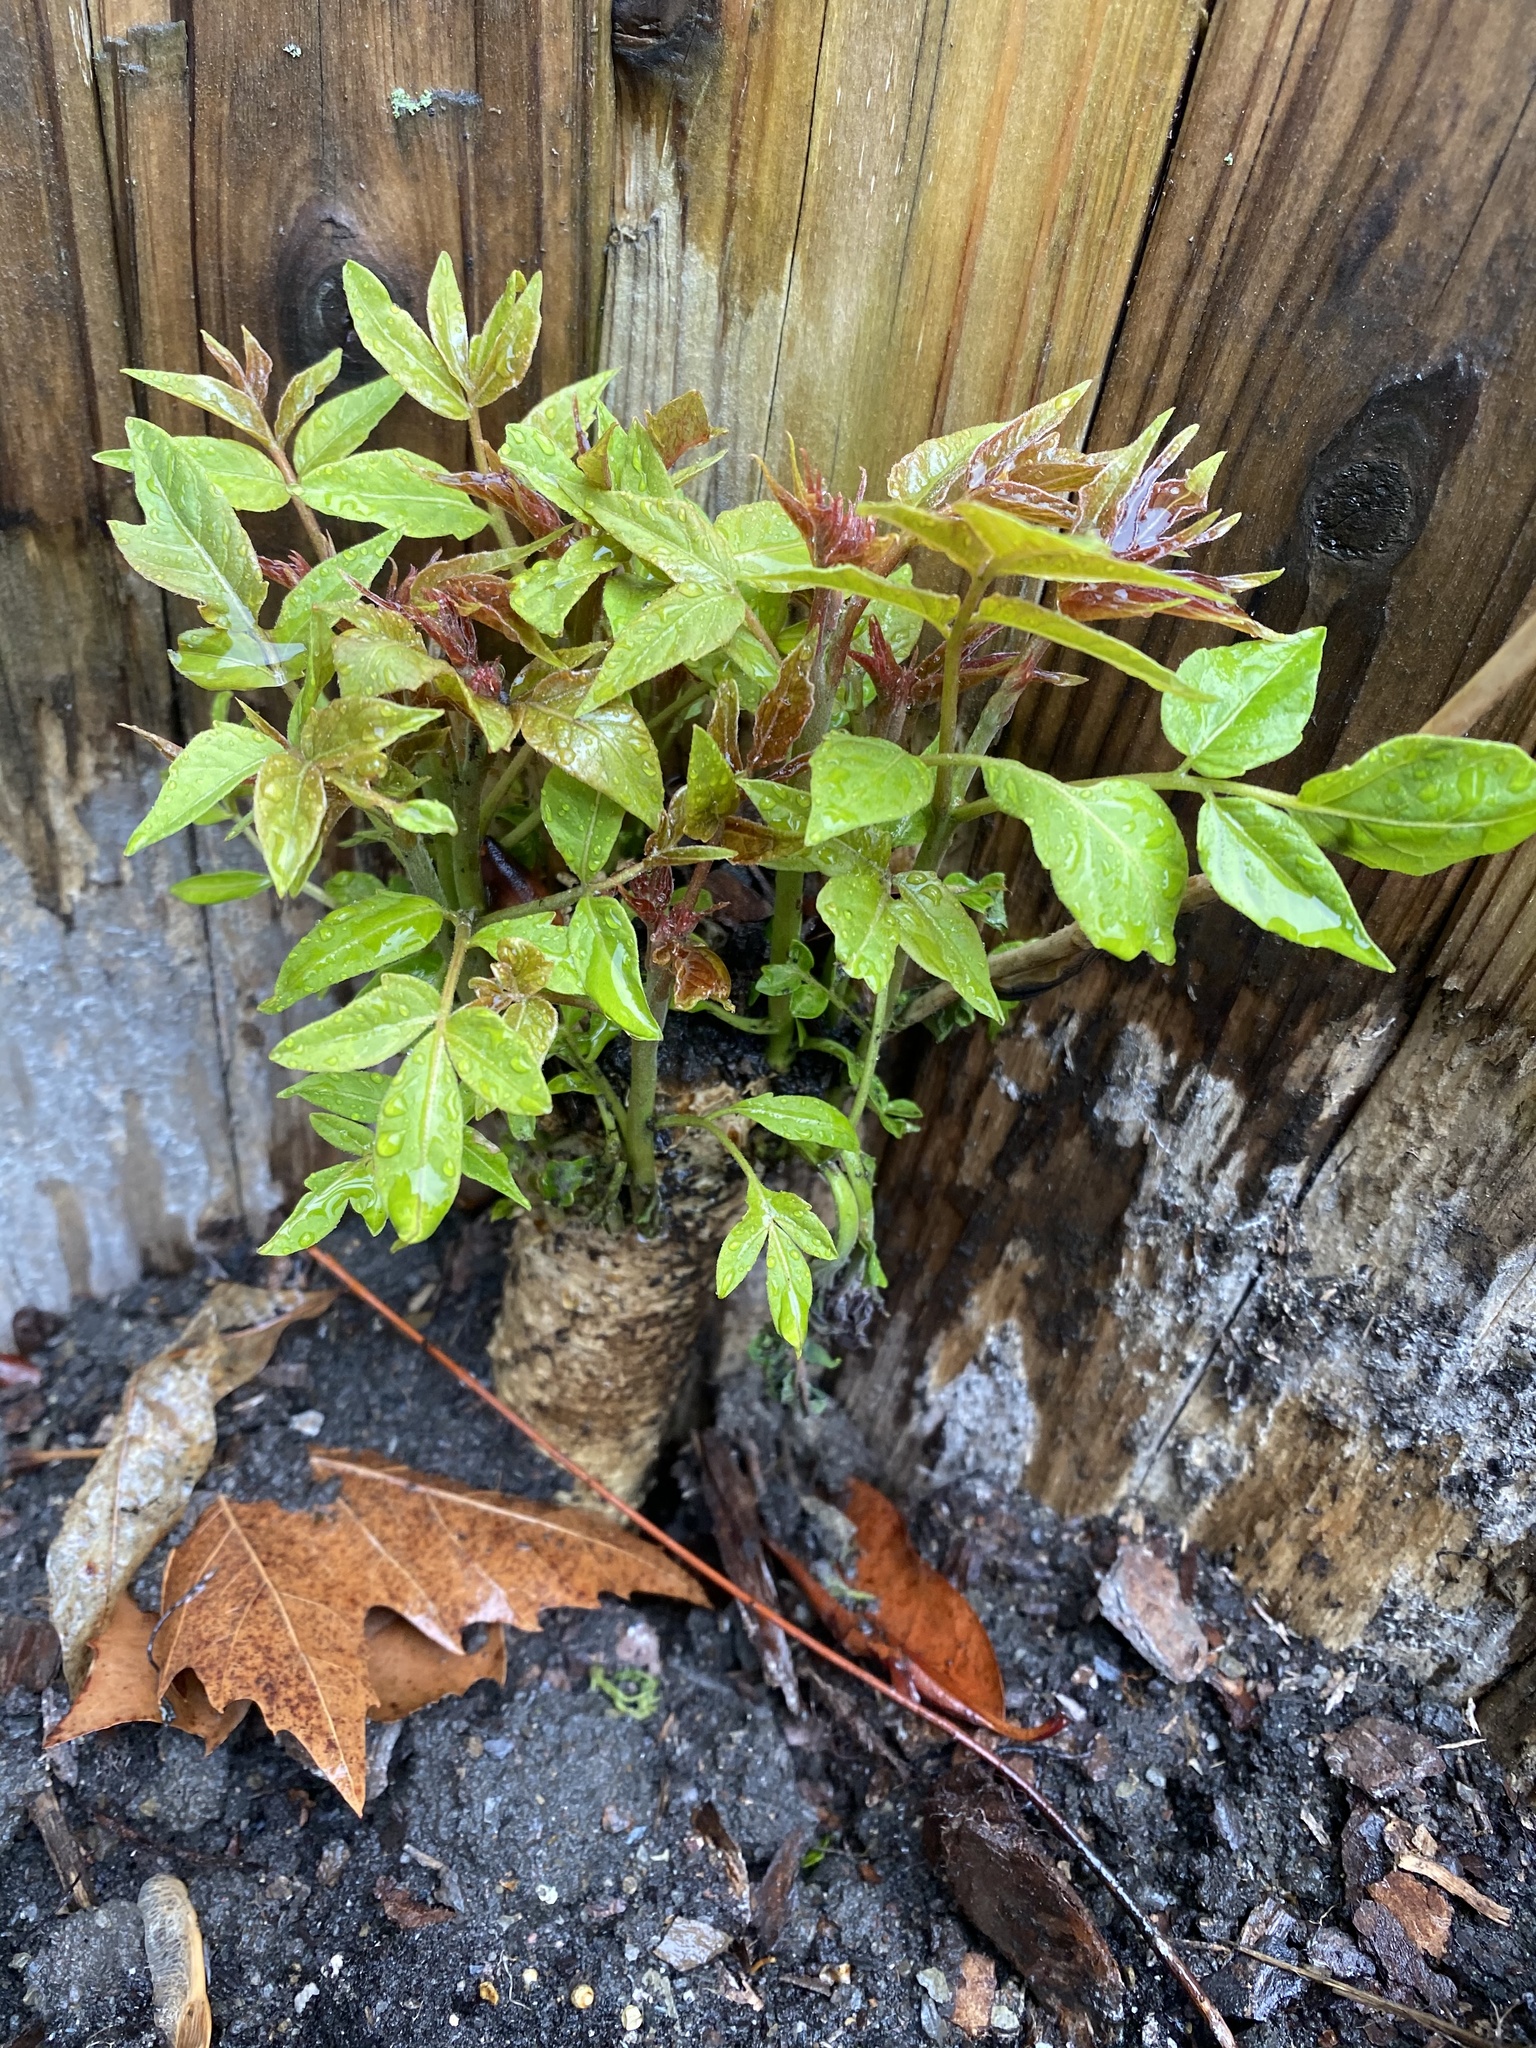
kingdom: Plantae
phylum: Tracheophyta
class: Magnoliopsida
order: Sapindales
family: Simaroubaceae
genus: Ailanthus
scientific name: Ailanthus altissima
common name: Tree-of-heaven
